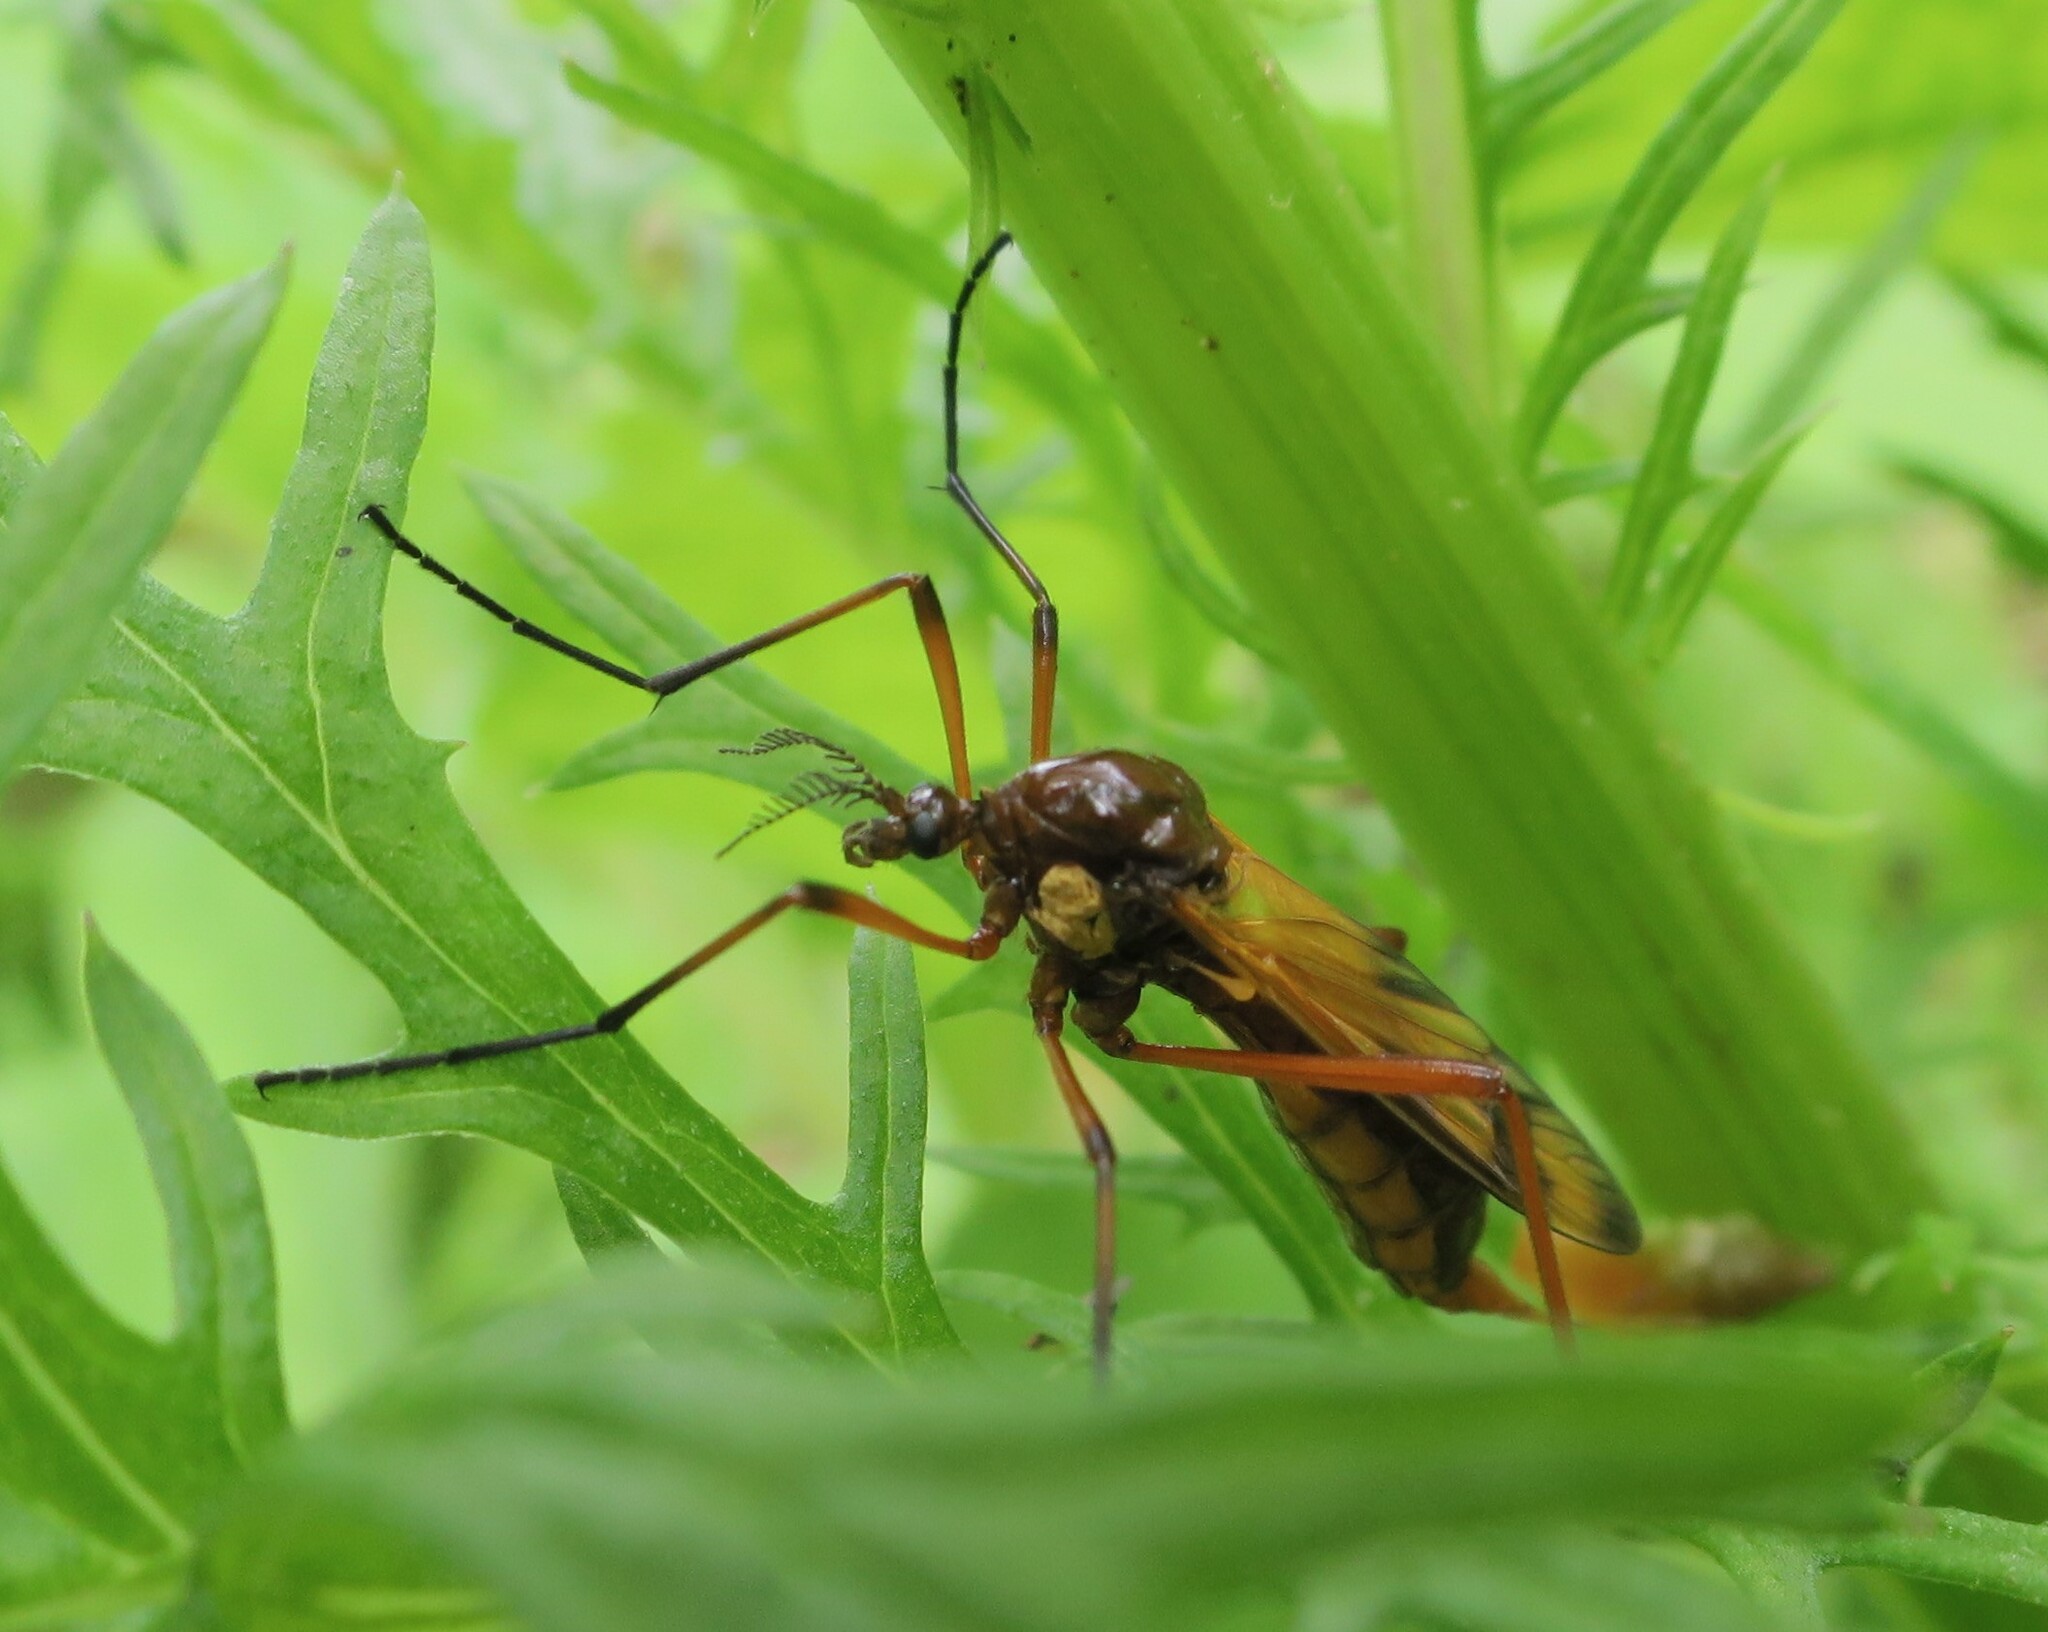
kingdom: Animalia
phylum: Arthropoda
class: Insecta
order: Diptera
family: Limoniidae
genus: Gynoplistia
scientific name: Gynoplistia splendens
